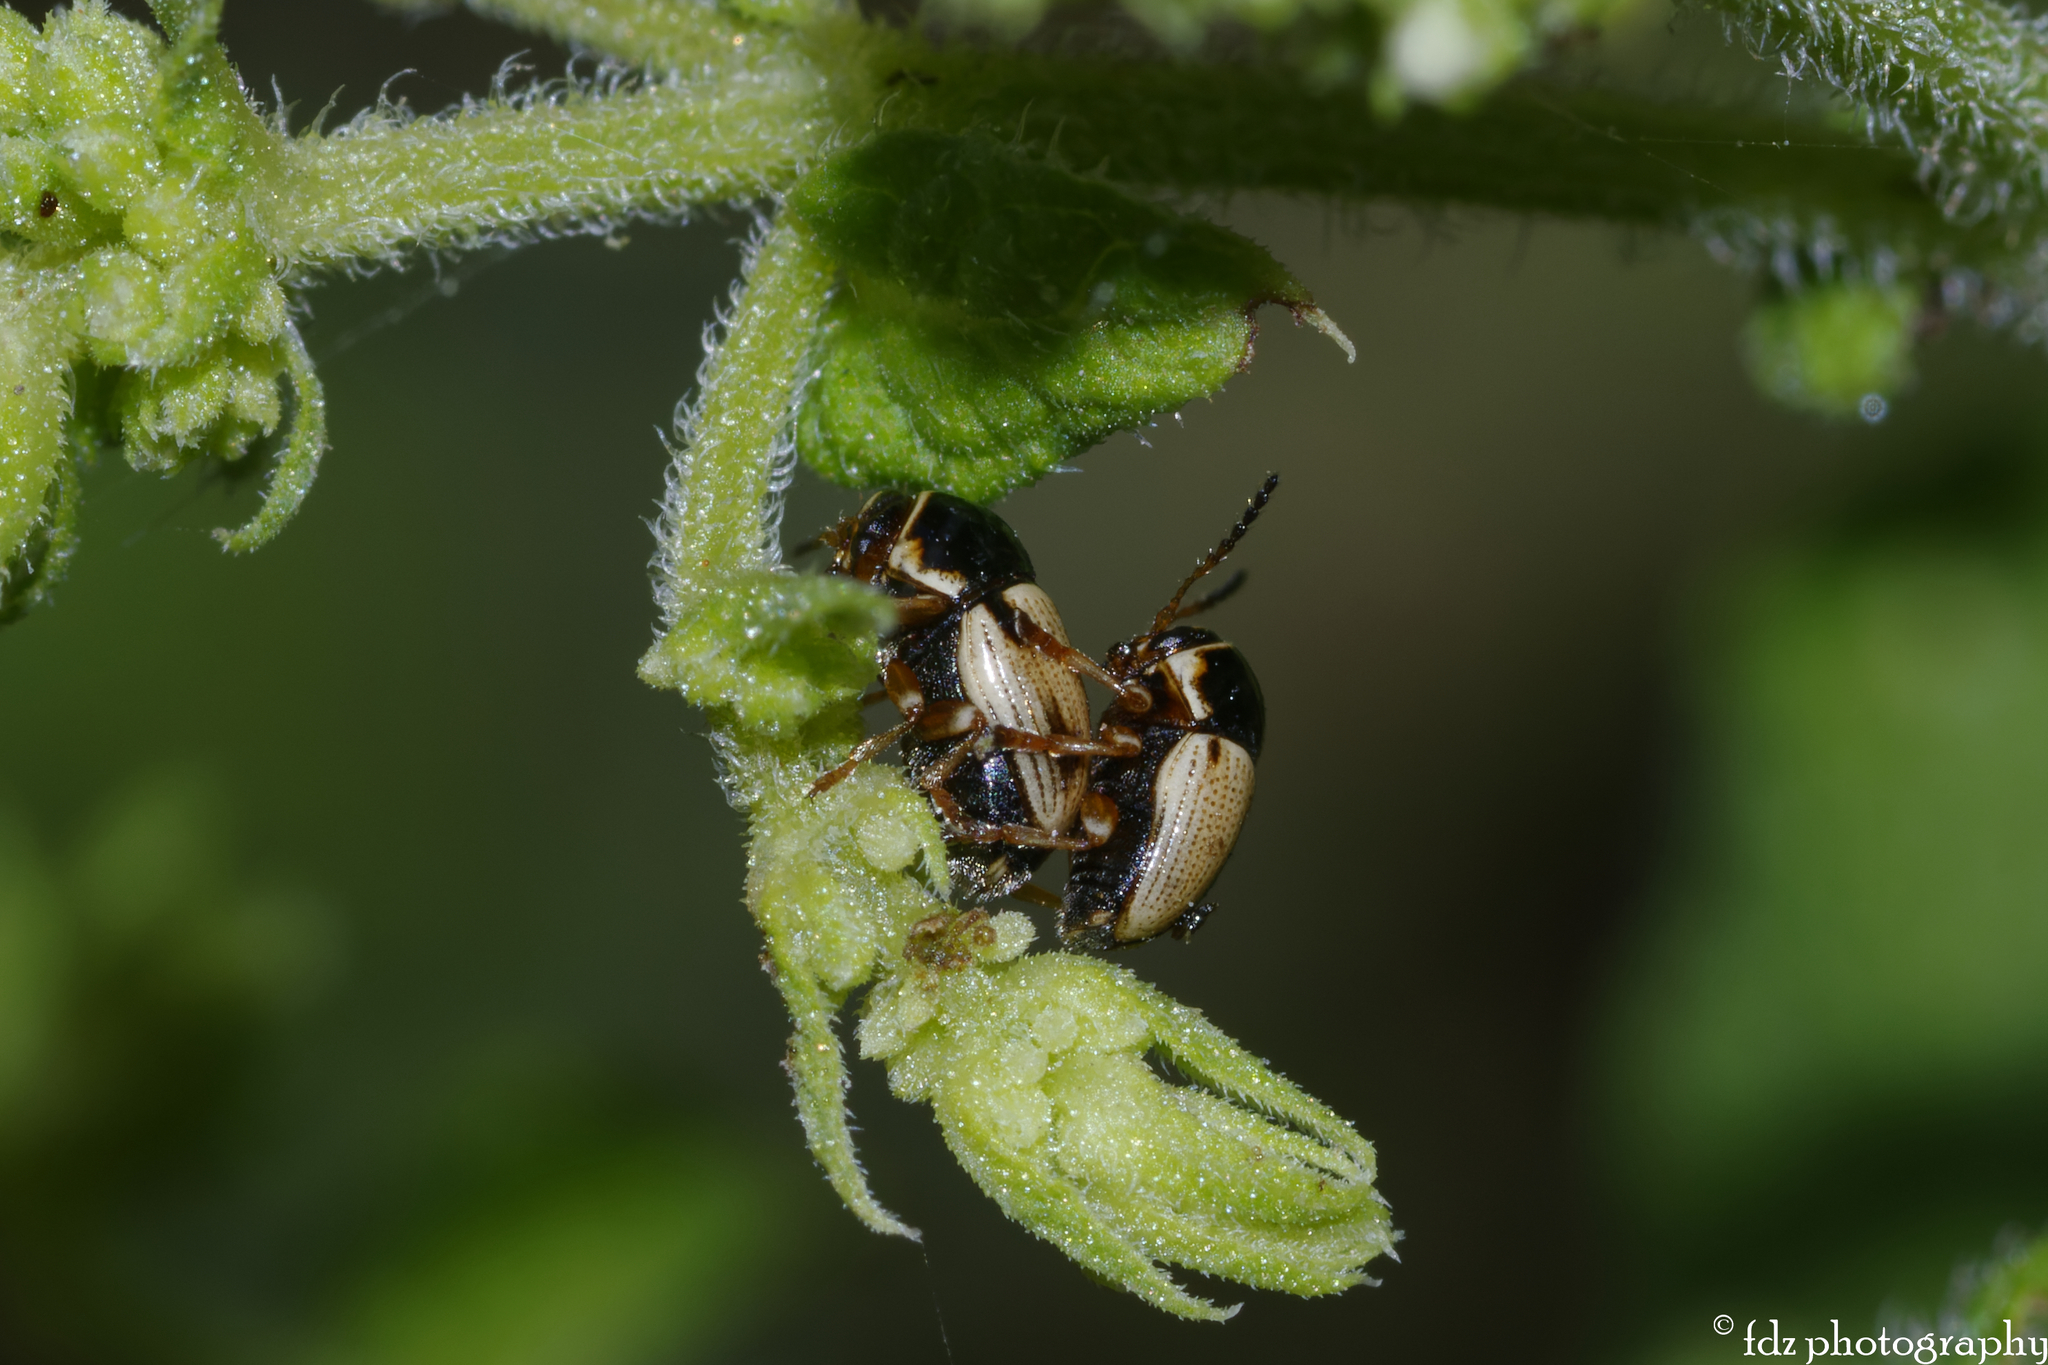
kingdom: Animalia
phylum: Arthropoda
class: Insecta
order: Coleoptera
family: Chrysomelidae
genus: Cryptocephalus
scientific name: Cryptocephalus pygmaeus
